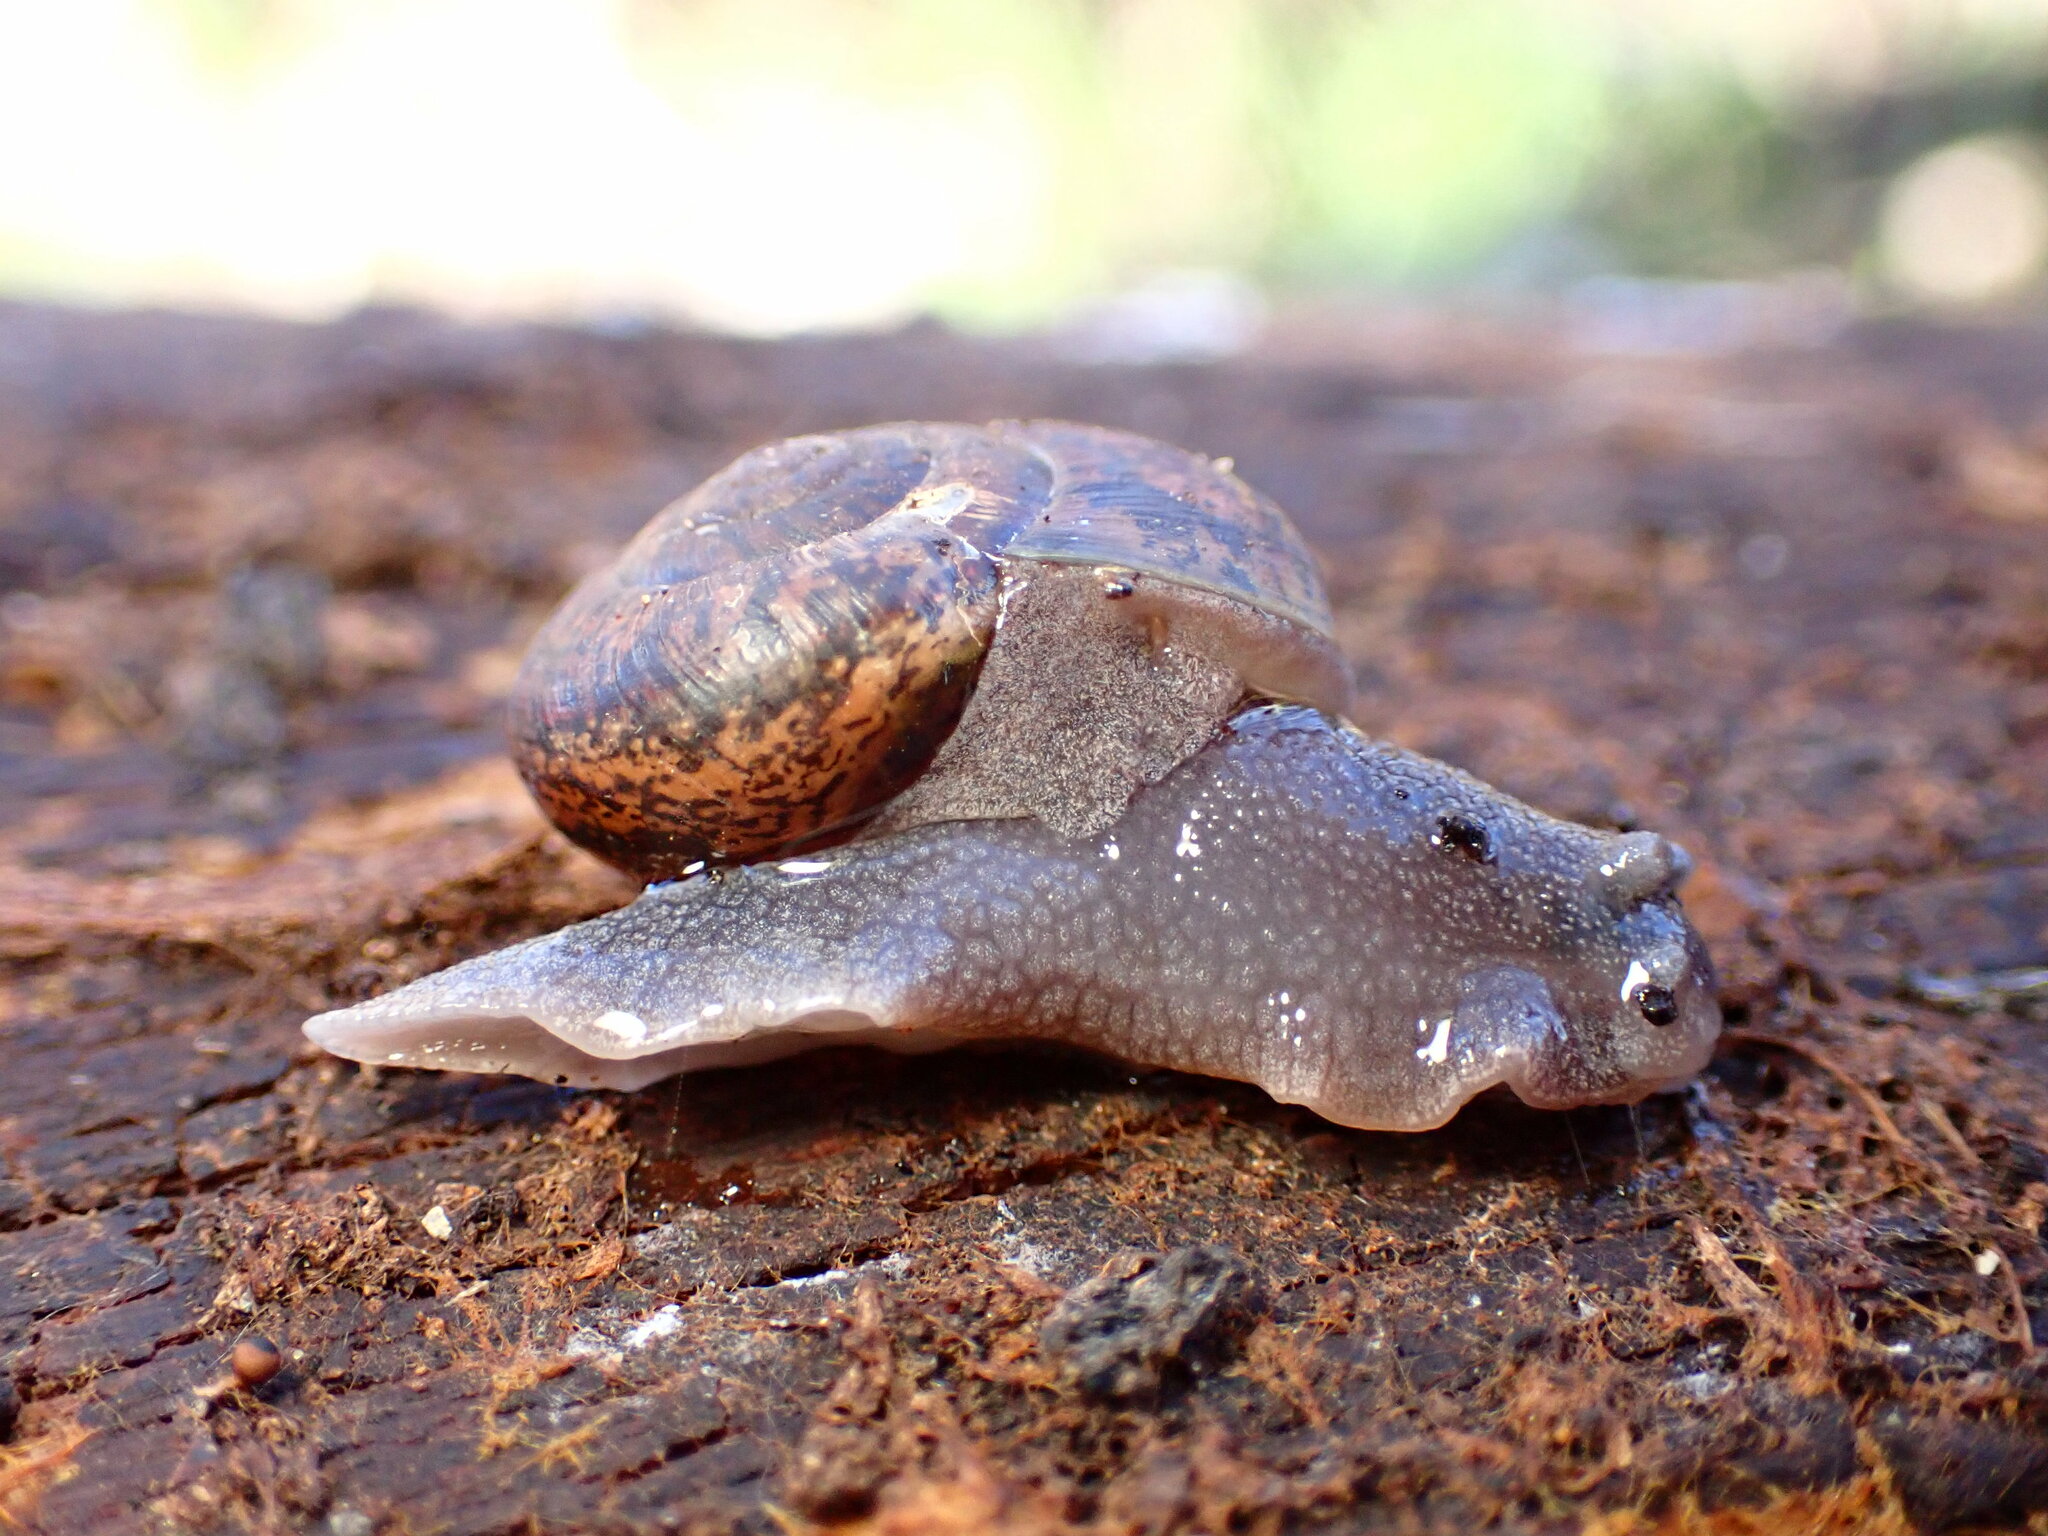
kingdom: Animalia
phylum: Mollusca
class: Gastropoda
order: Stylommatophora
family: Xanthonychidae
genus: Helminthoglypta
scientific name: Helminthoglypta cypreophila
